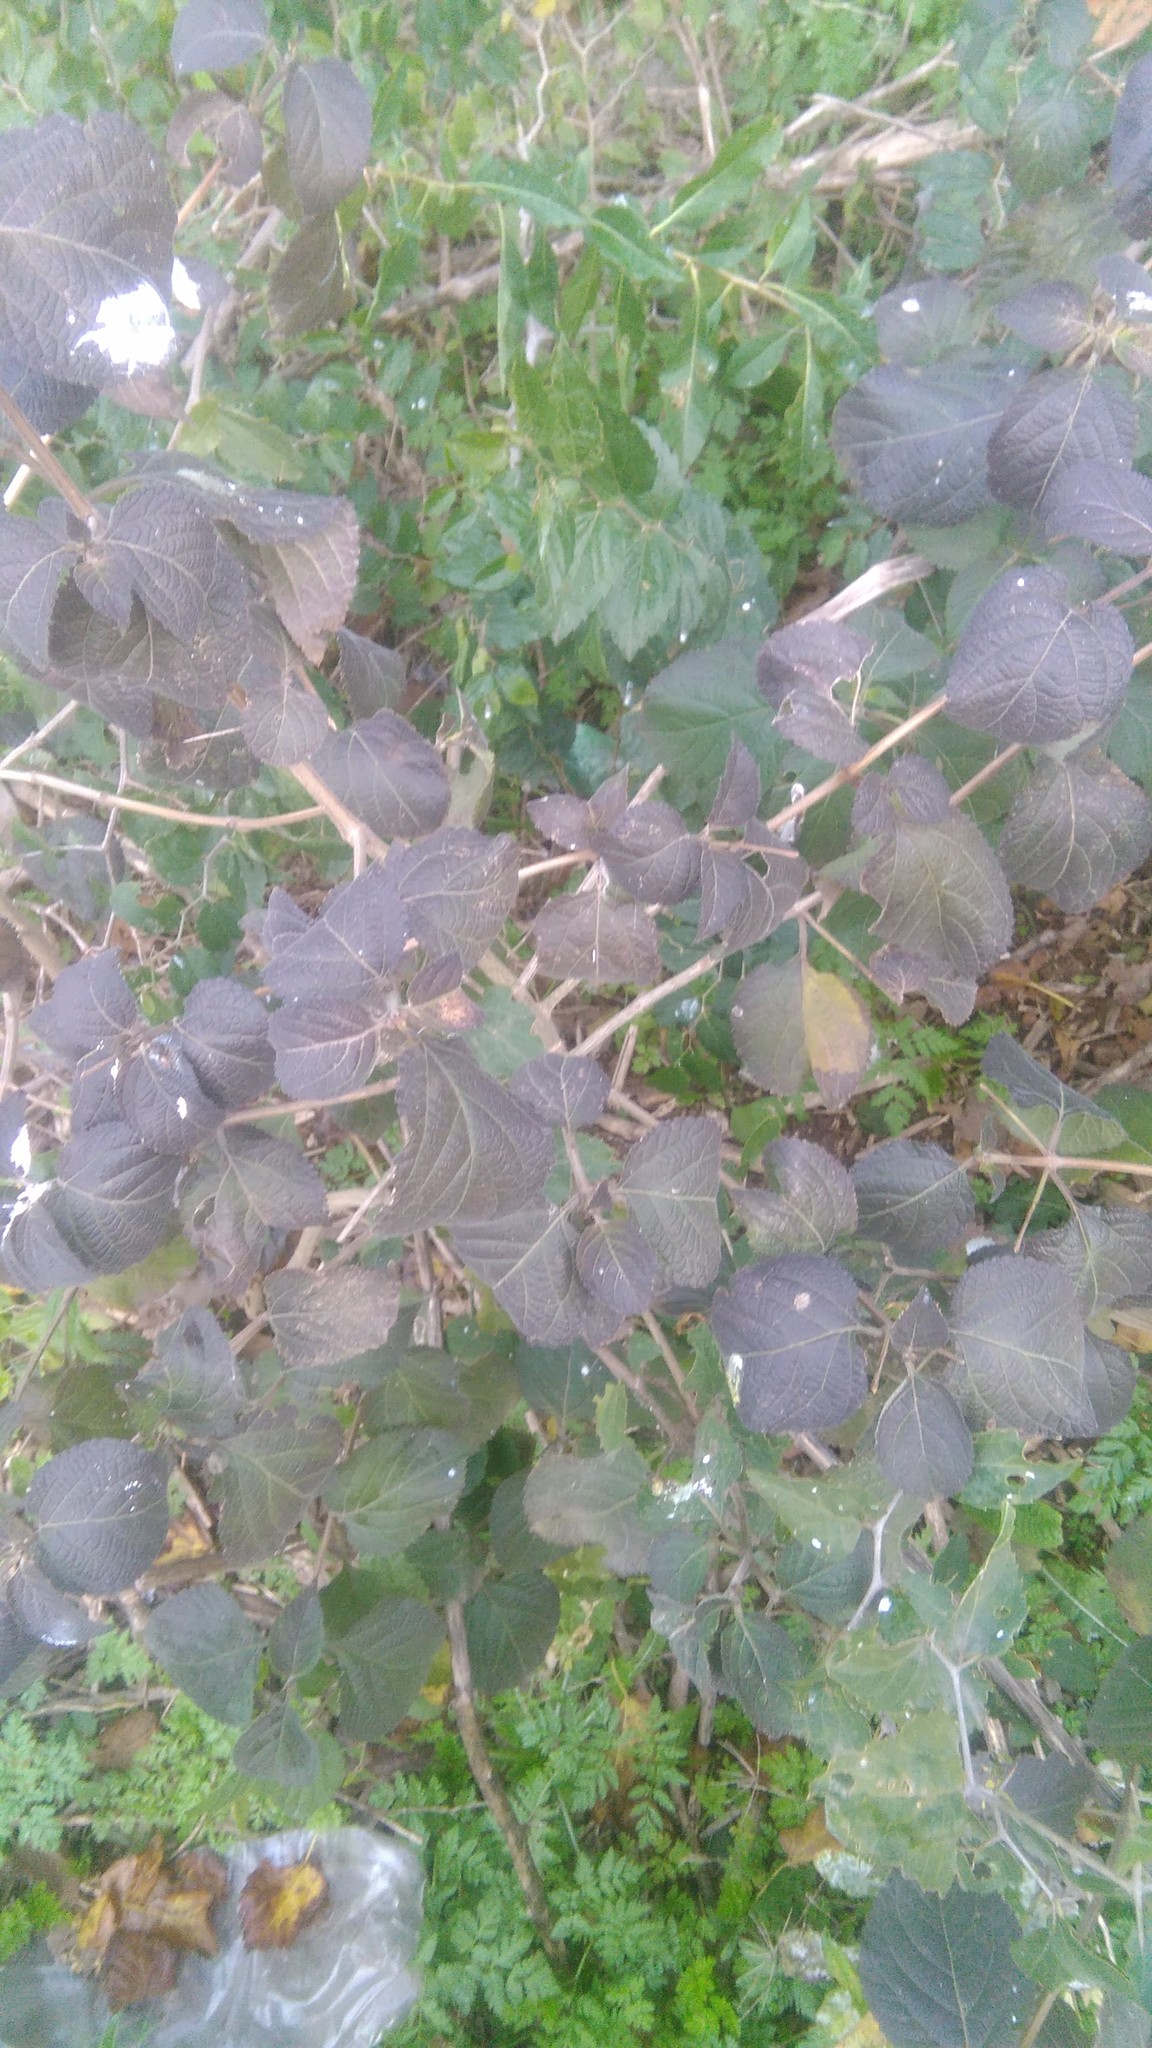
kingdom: Plantae
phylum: Tracheophyta
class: Magnoliopsida
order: Lamiales
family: Verbenaceae
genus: Lantana
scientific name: Lantana camara
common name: Lantana
